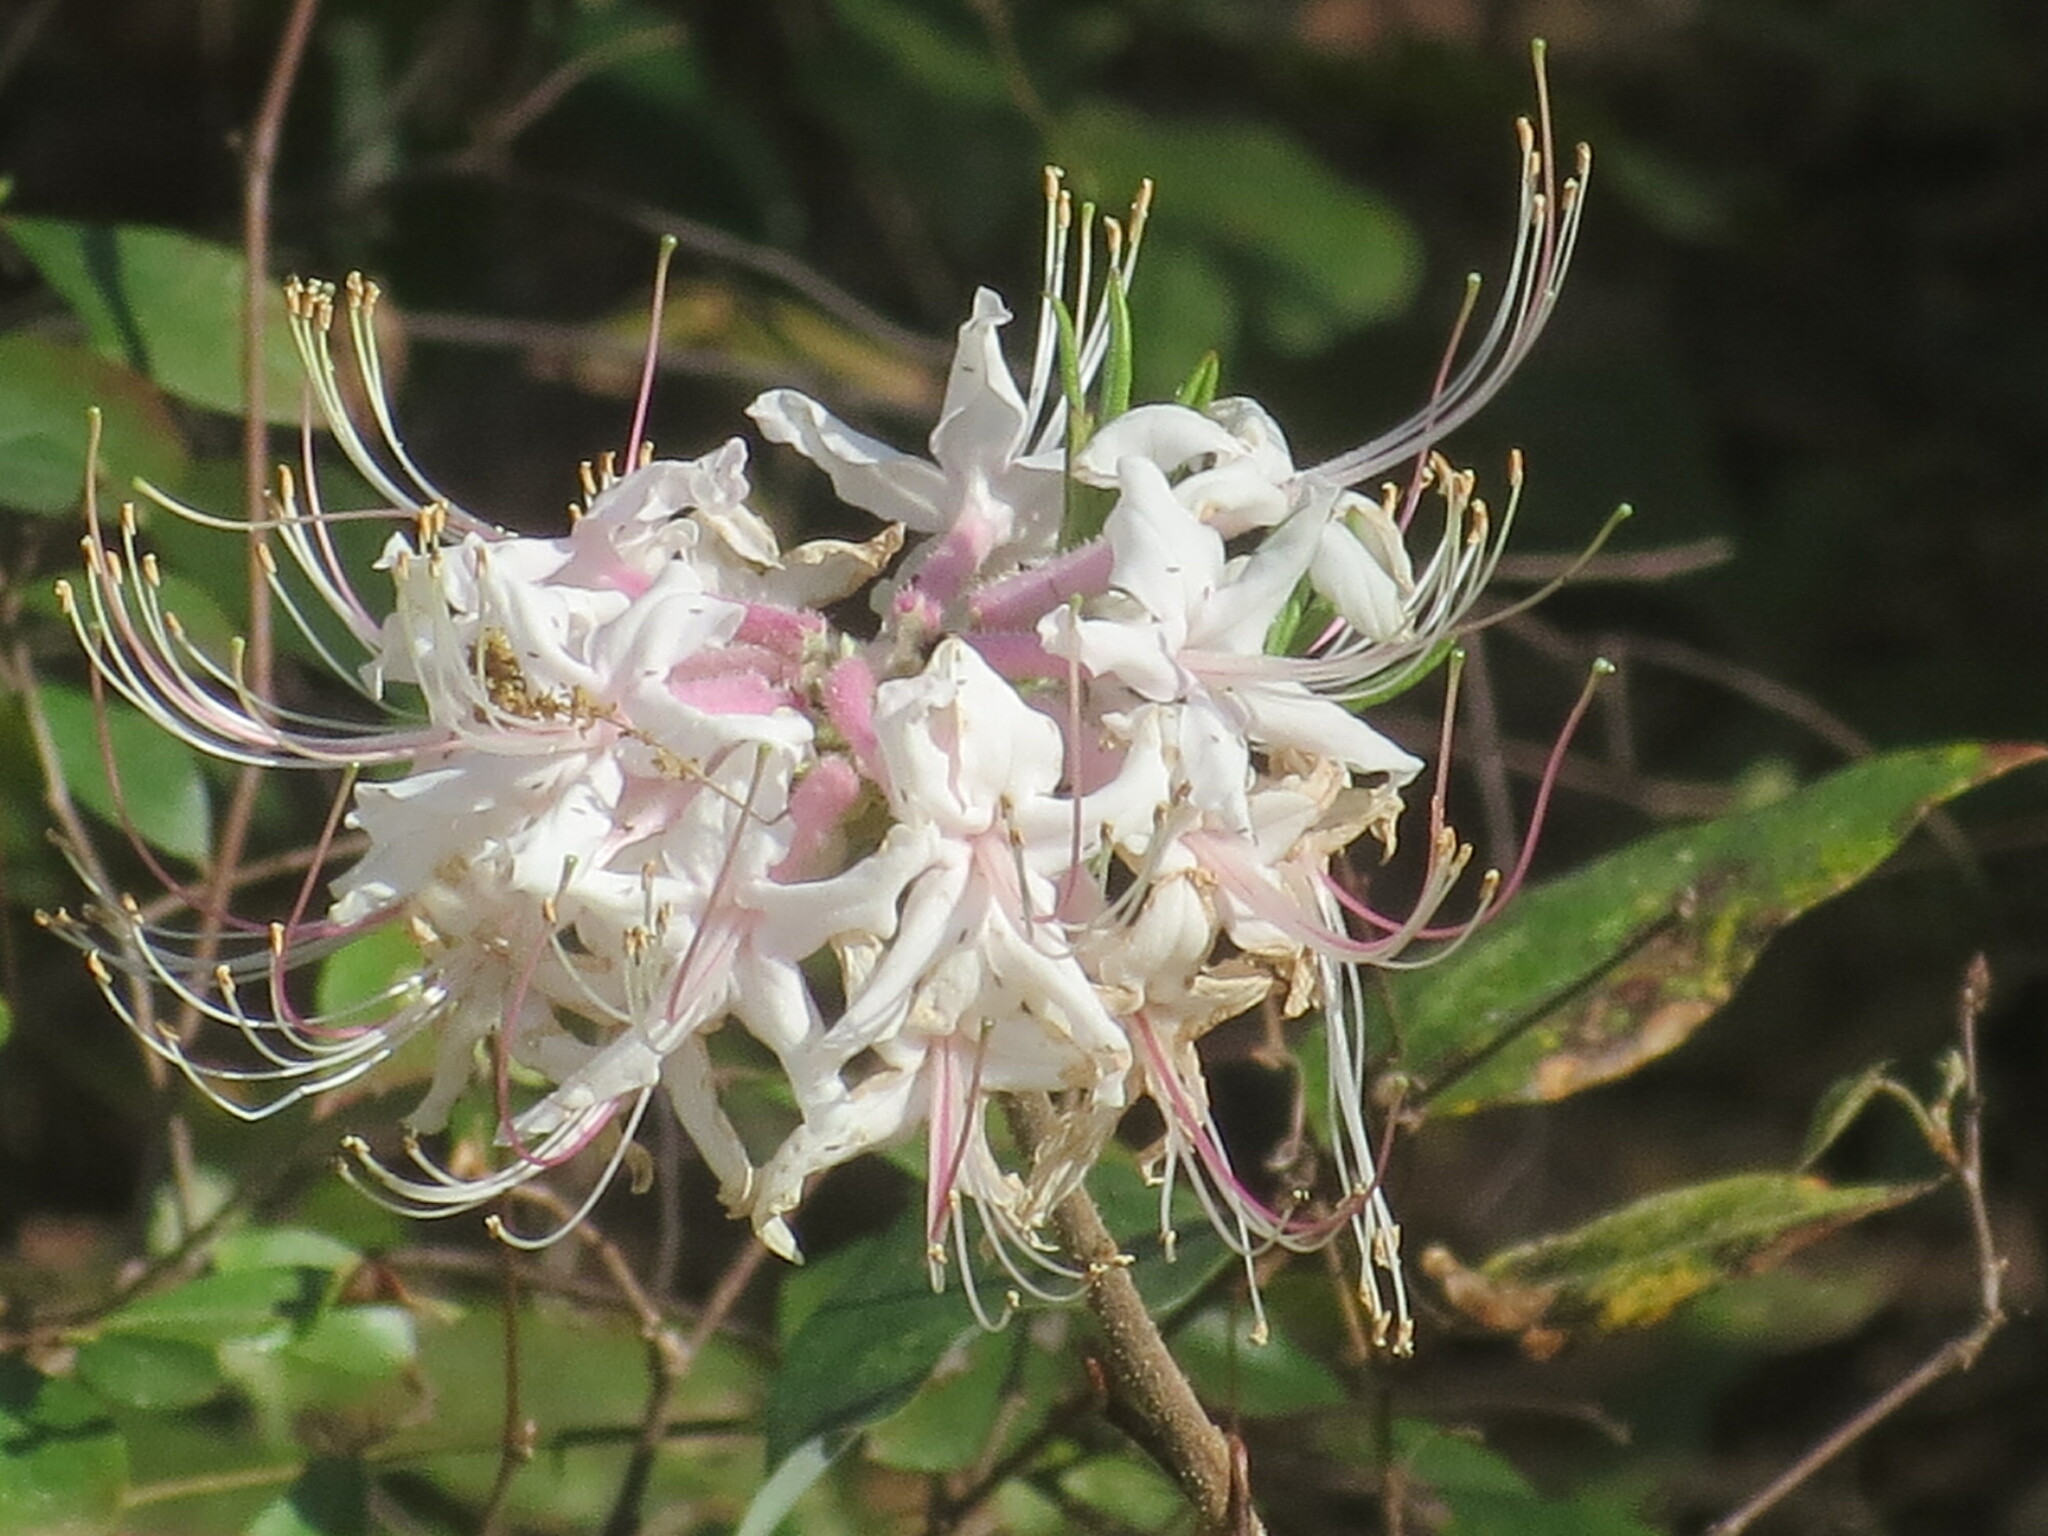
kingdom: Plantae
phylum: Tracheophyta
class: Magnoliopsida
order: Ericales
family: Ericaceae
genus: Rhododendron
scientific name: Rhododendron canescens
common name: Mountain azalea
